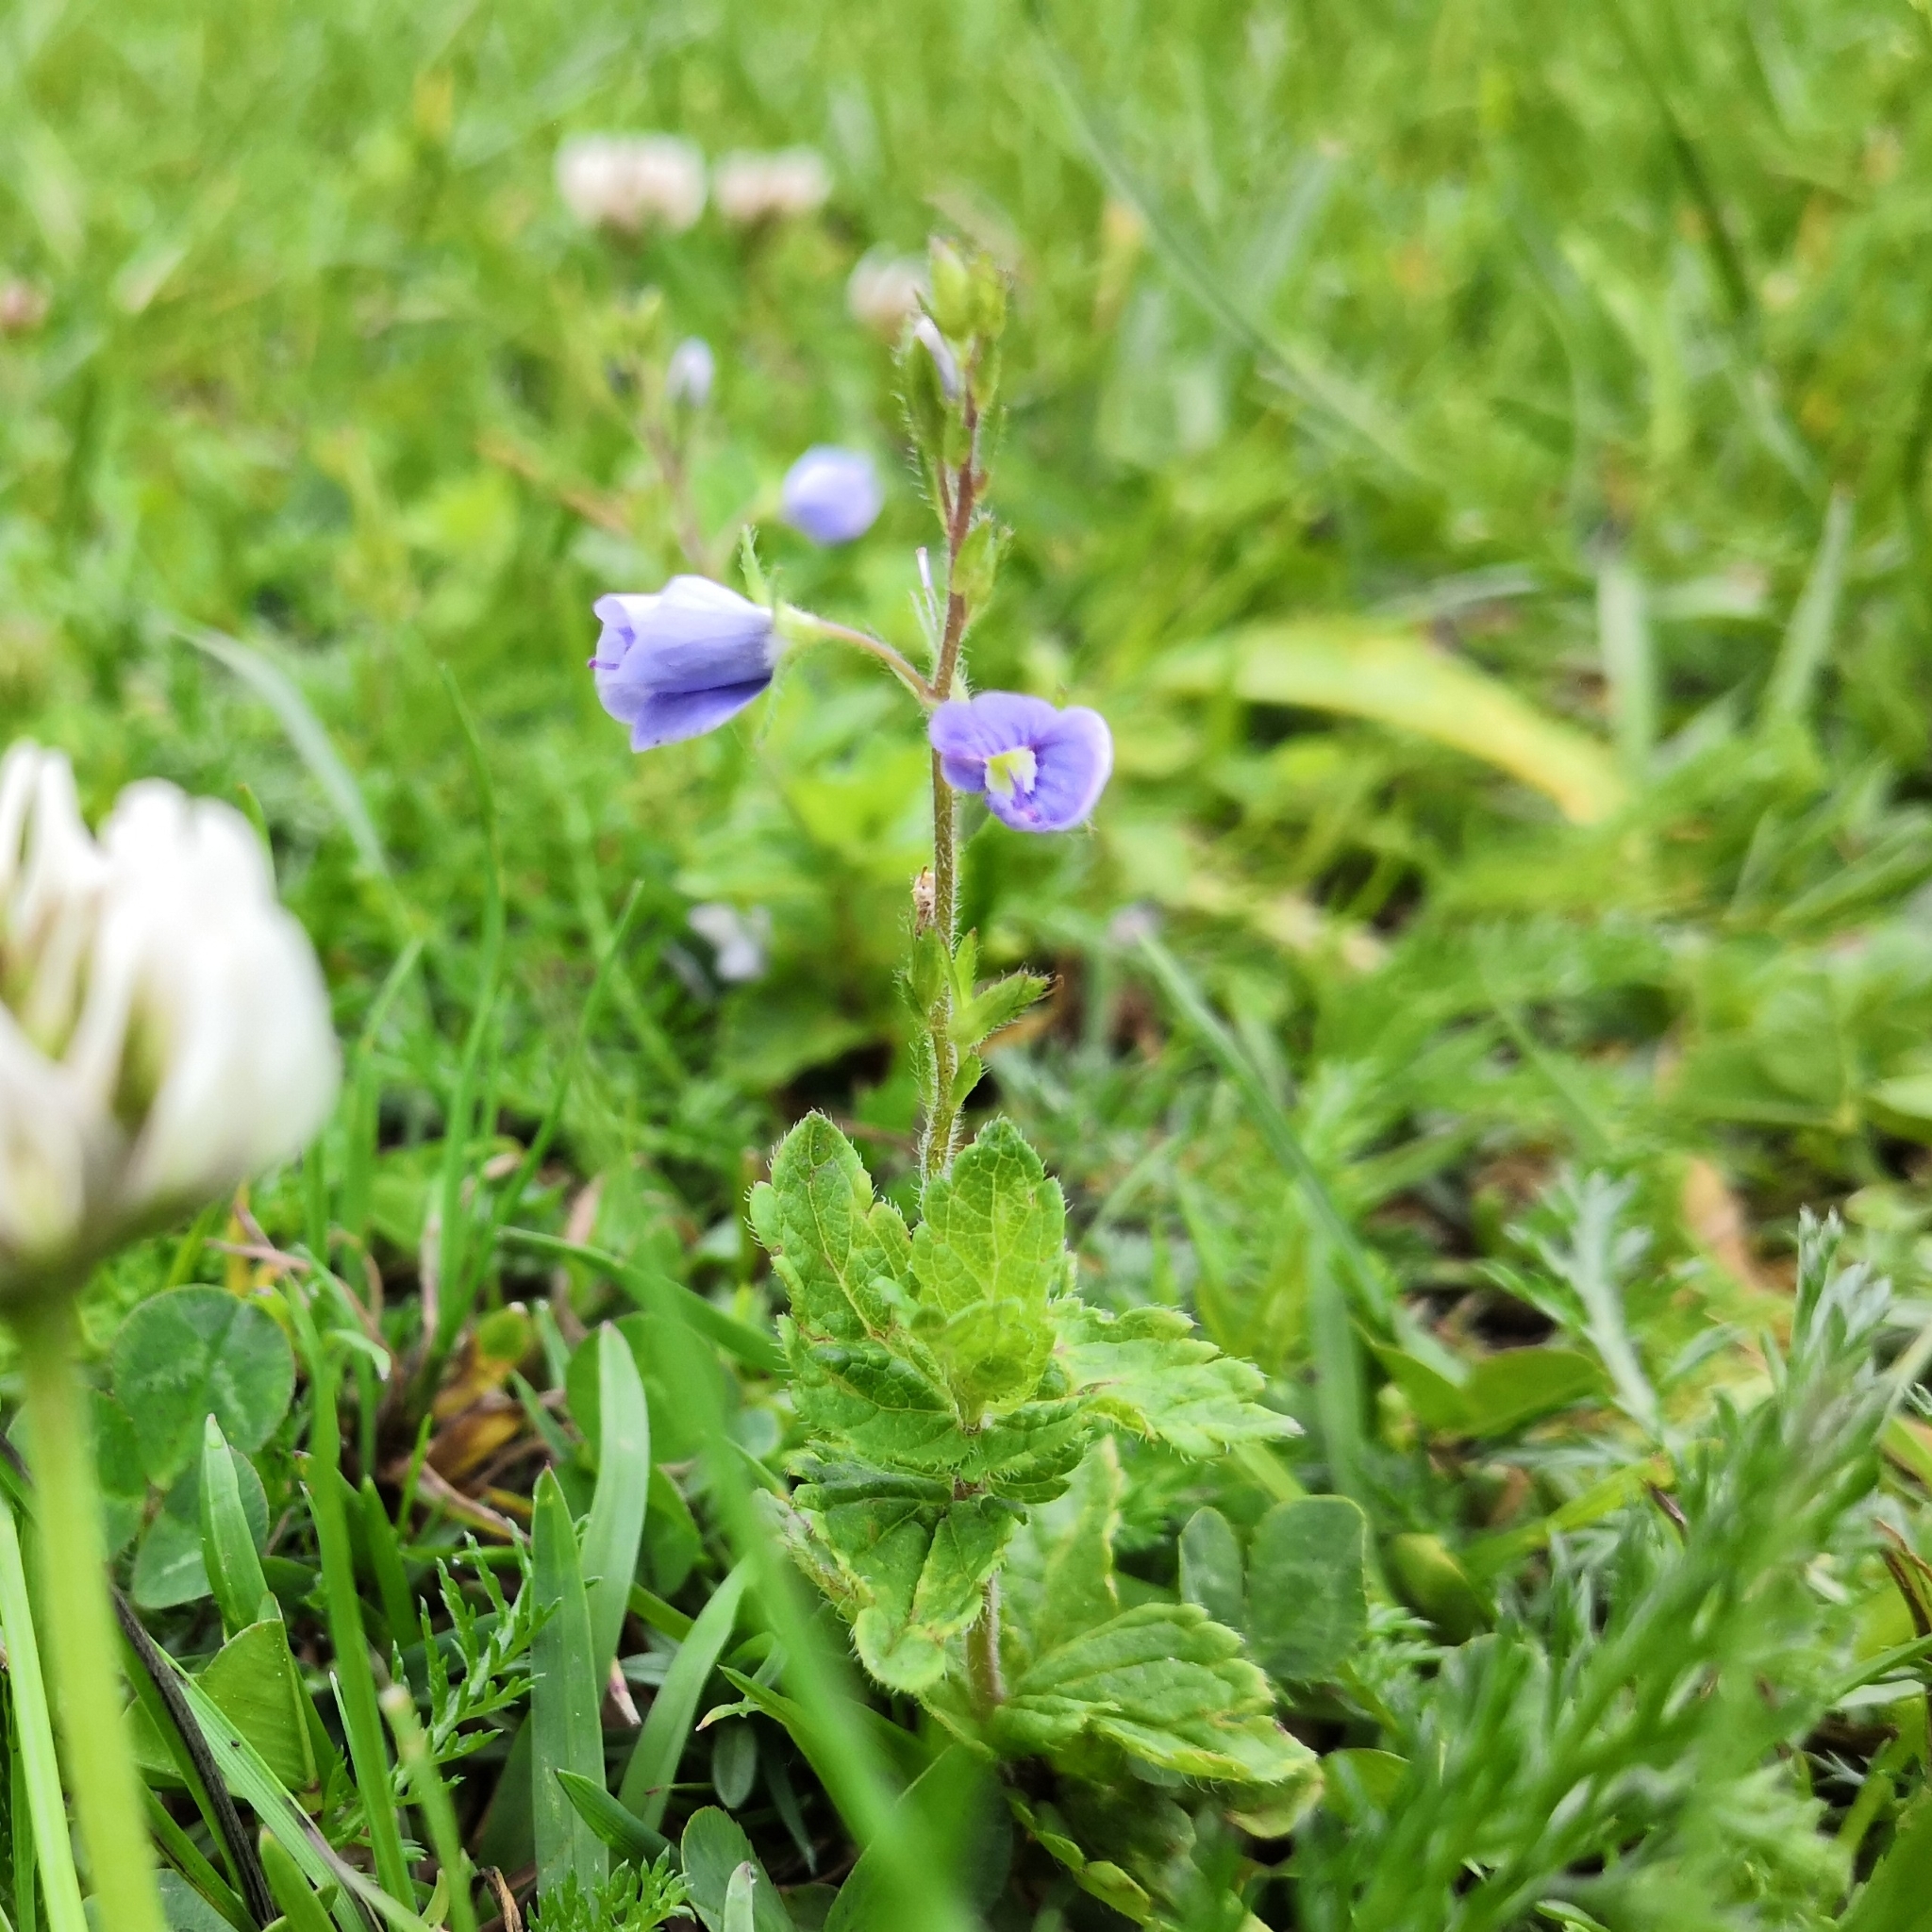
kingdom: Plantae
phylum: Tracheophyta
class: Magnoliopsida
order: Lamiales
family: Plantaginaceae
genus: Veronica
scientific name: Veronica chamaedrys
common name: Germander speedwell
